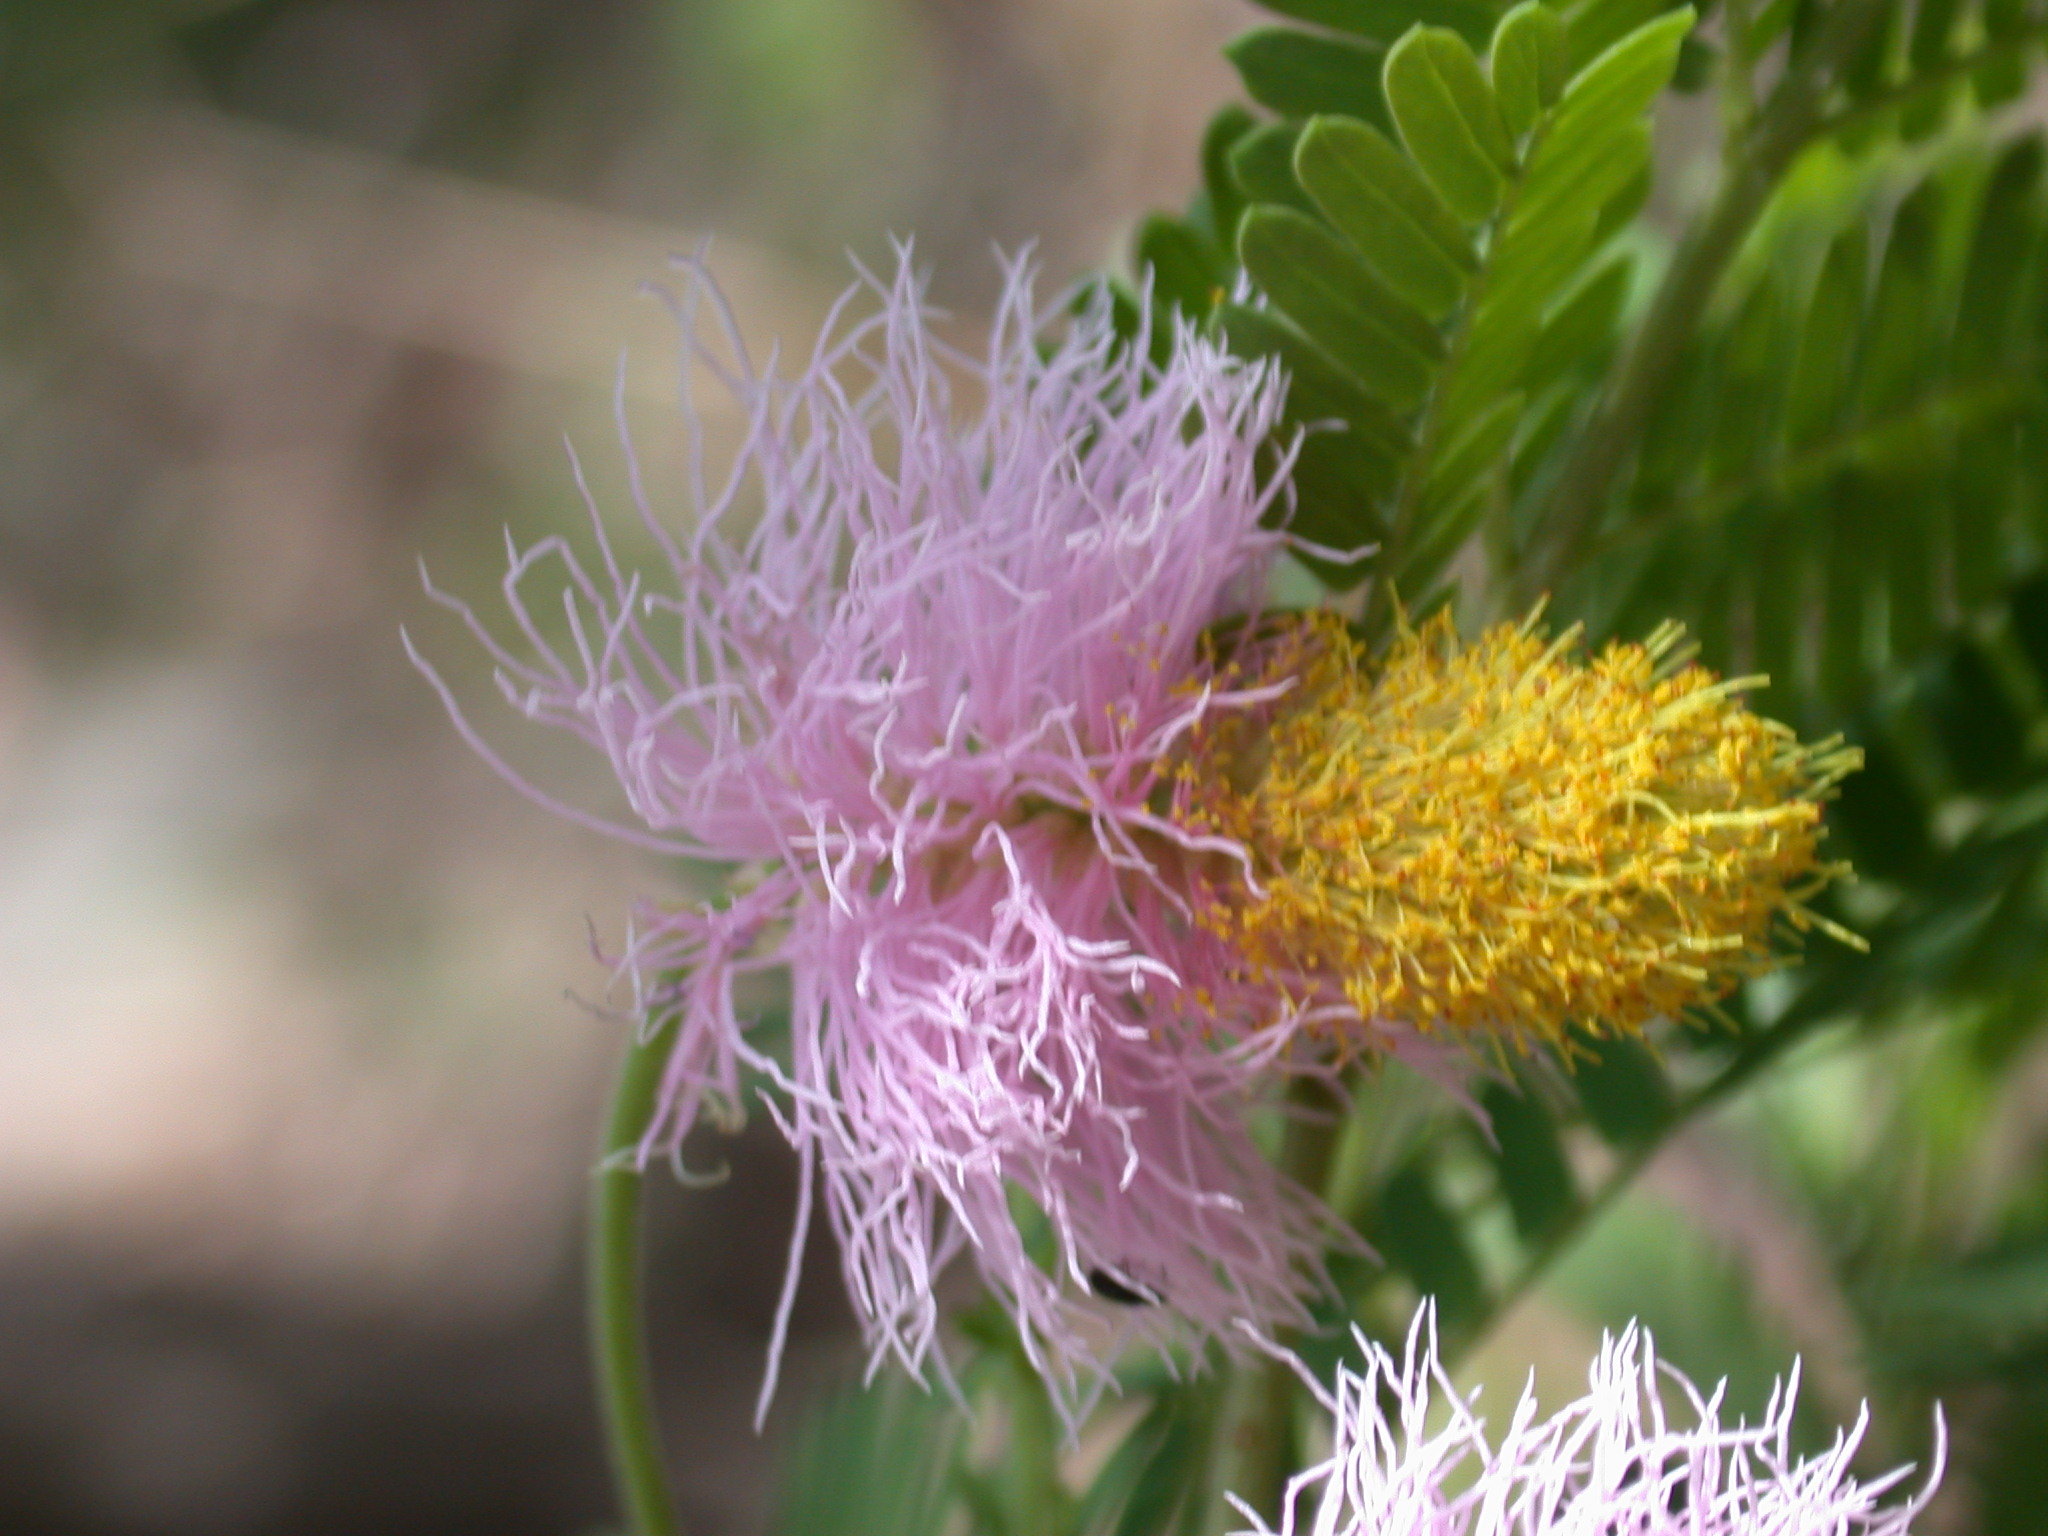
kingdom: Plantae
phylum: Tracheophyta
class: Magnoliopsida
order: Fabales
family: Fabaceae
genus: Dichrostachys
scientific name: Dichrostachys cinerea
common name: Sicklebush
